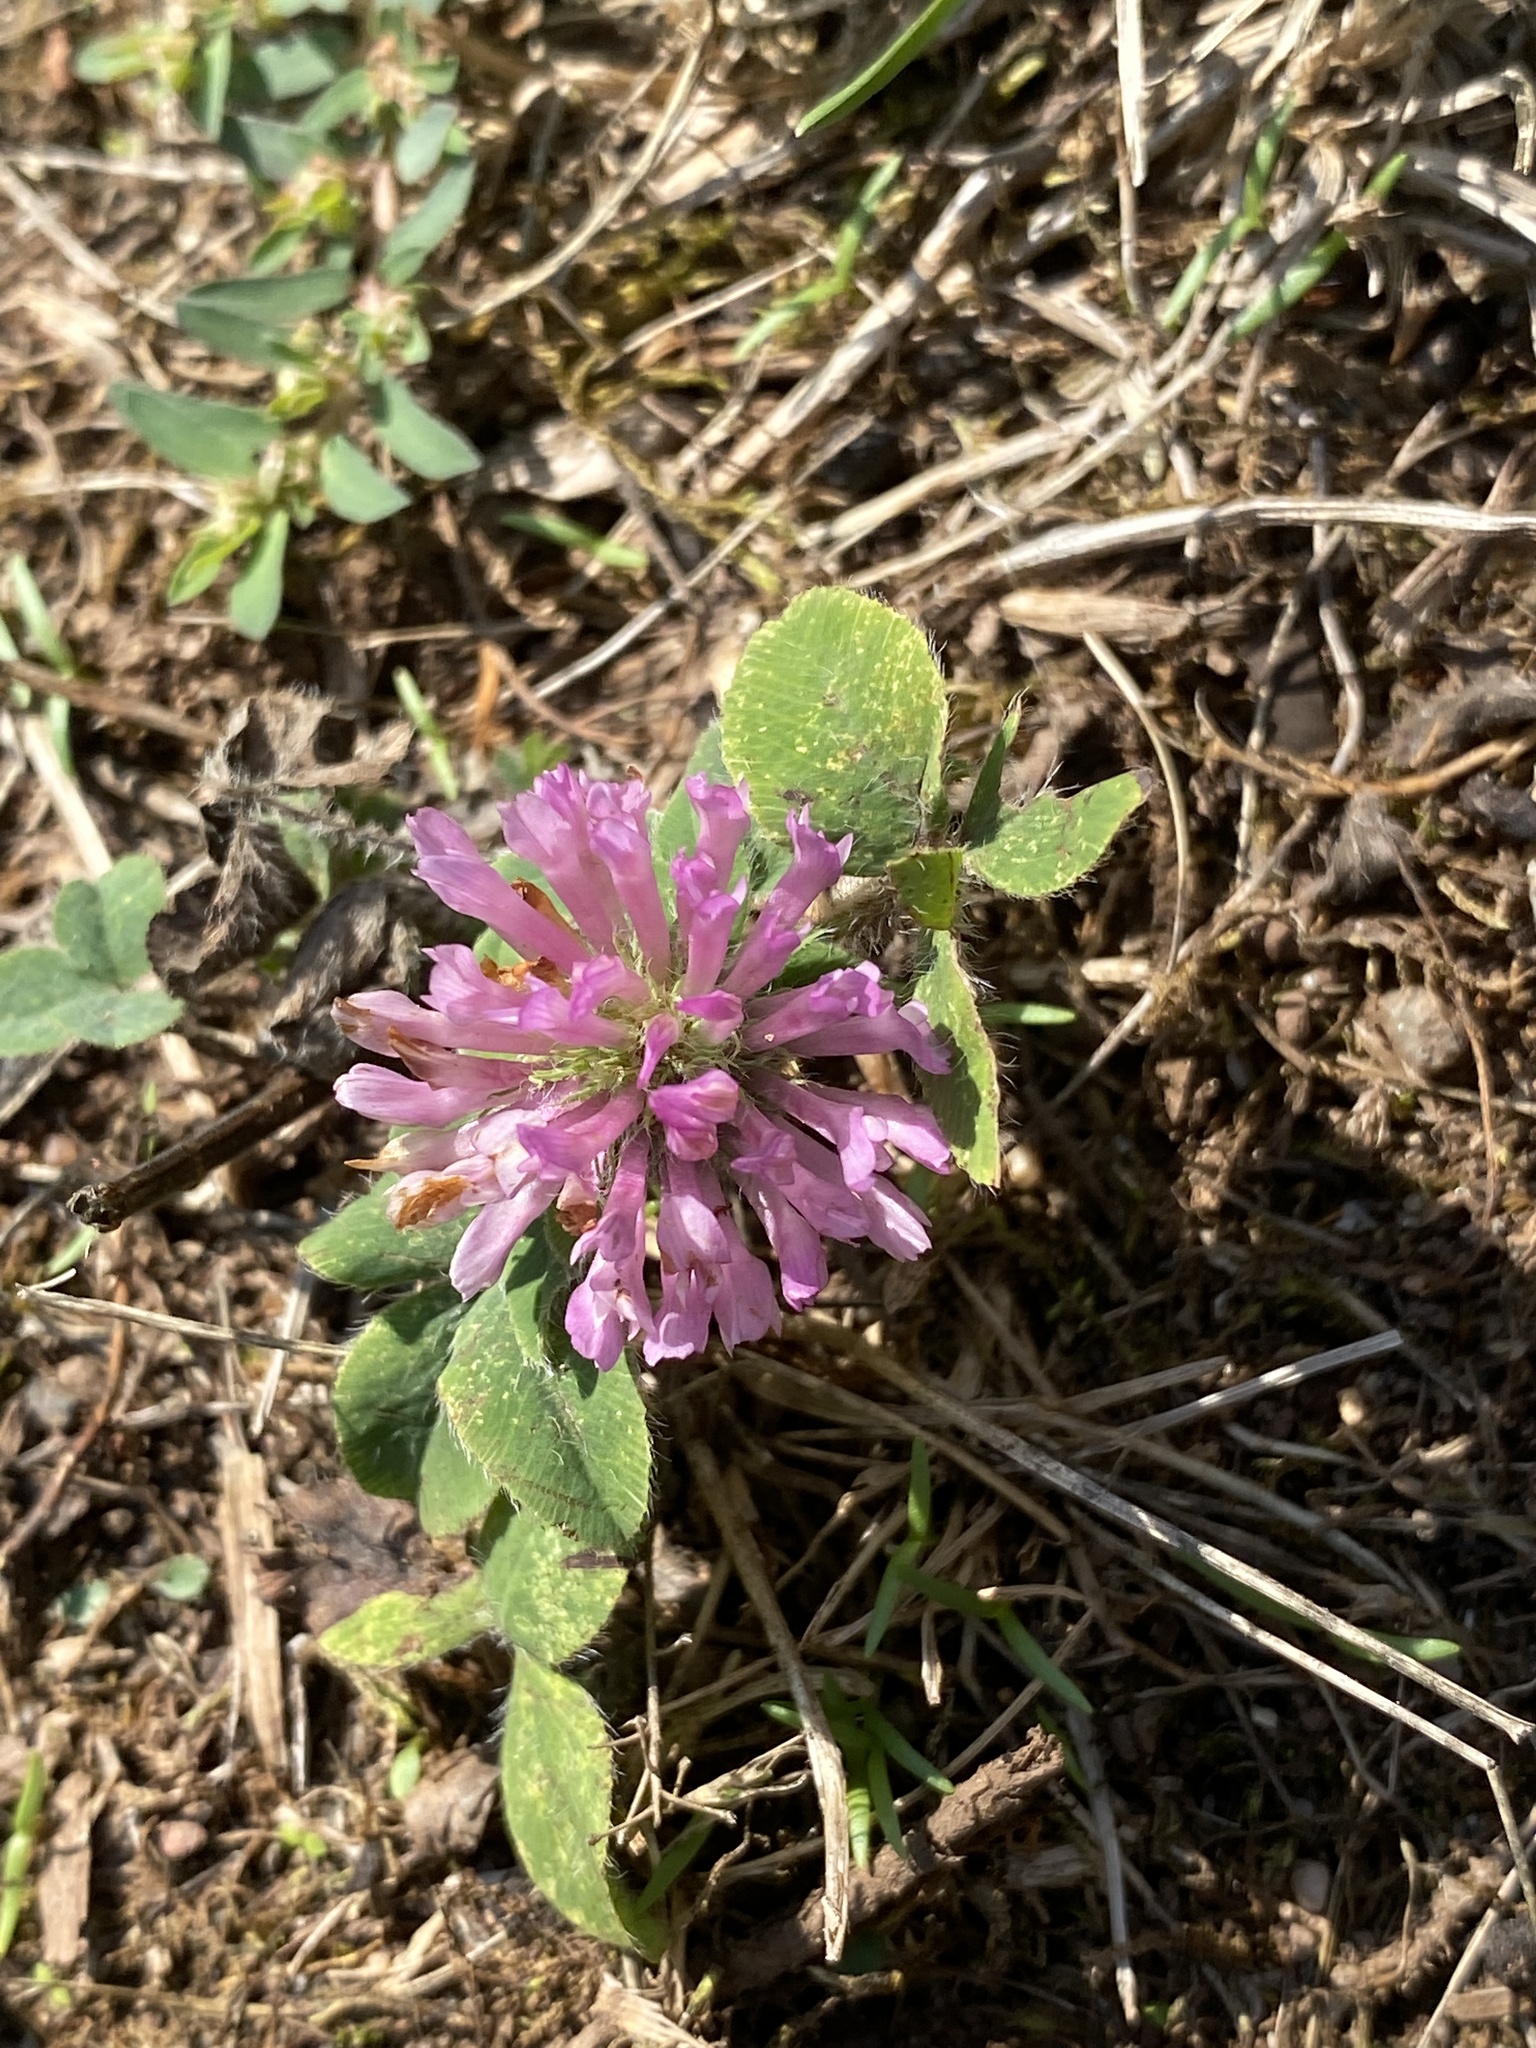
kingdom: Plantae
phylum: Tracheophyta
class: Magnoliopsida
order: Fabales
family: Fabaceae
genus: Trifolium
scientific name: Trifolium pratense
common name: Red clover
